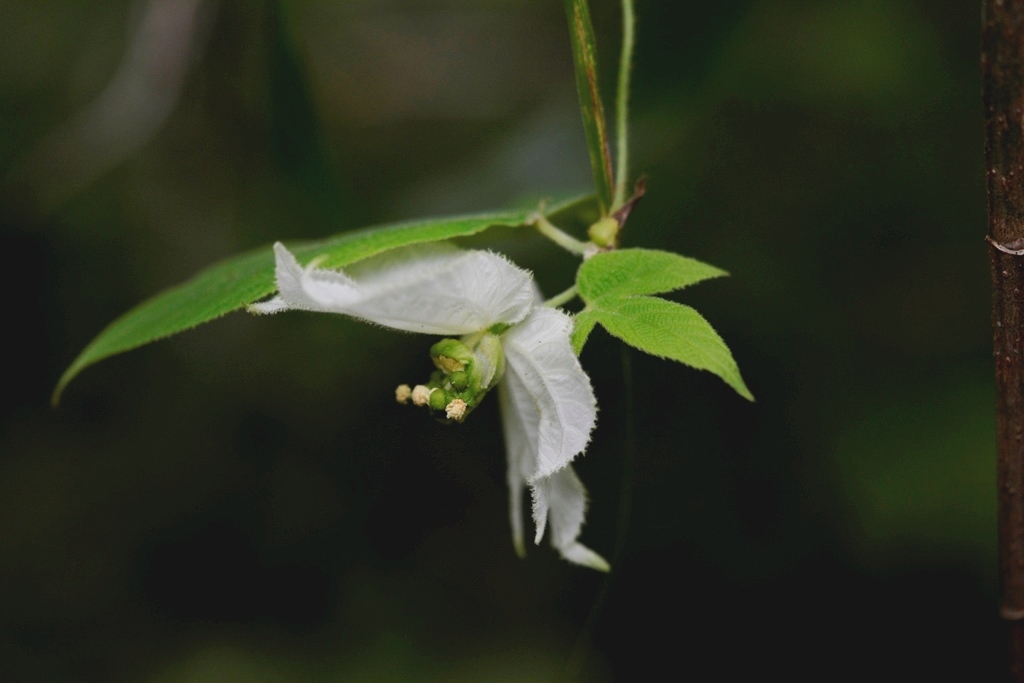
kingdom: Plantae
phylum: Tracheophyta
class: Magnoliopsida
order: Malpighiales
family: Euphorbiaceae
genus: Dalechampia
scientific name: Dalechampia scandens
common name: Spurgecreeper
